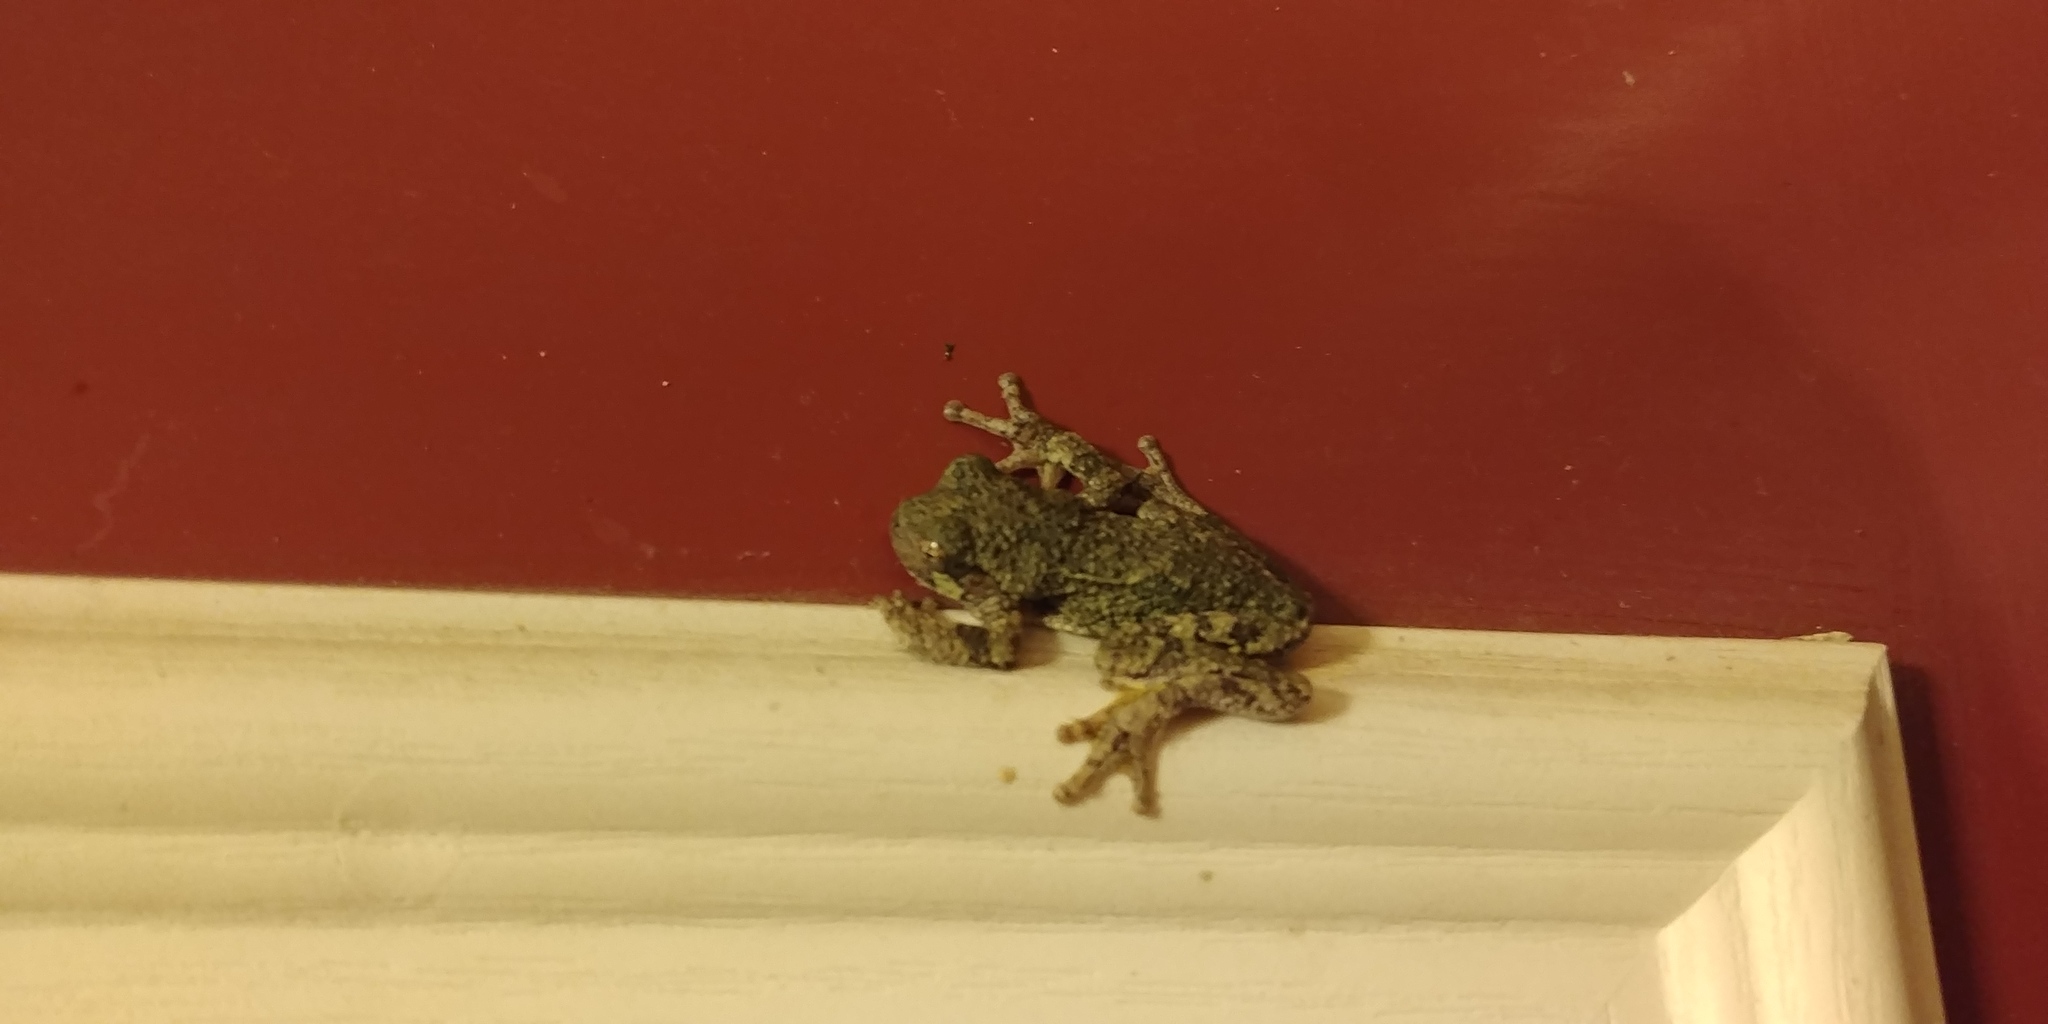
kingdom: Animalia
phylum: Chordata
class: Amphibia
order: Anura
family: Hylidae
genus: Dryophytes
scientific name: Dryophytes chrysoscelis
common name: Cope's gray treefrog
